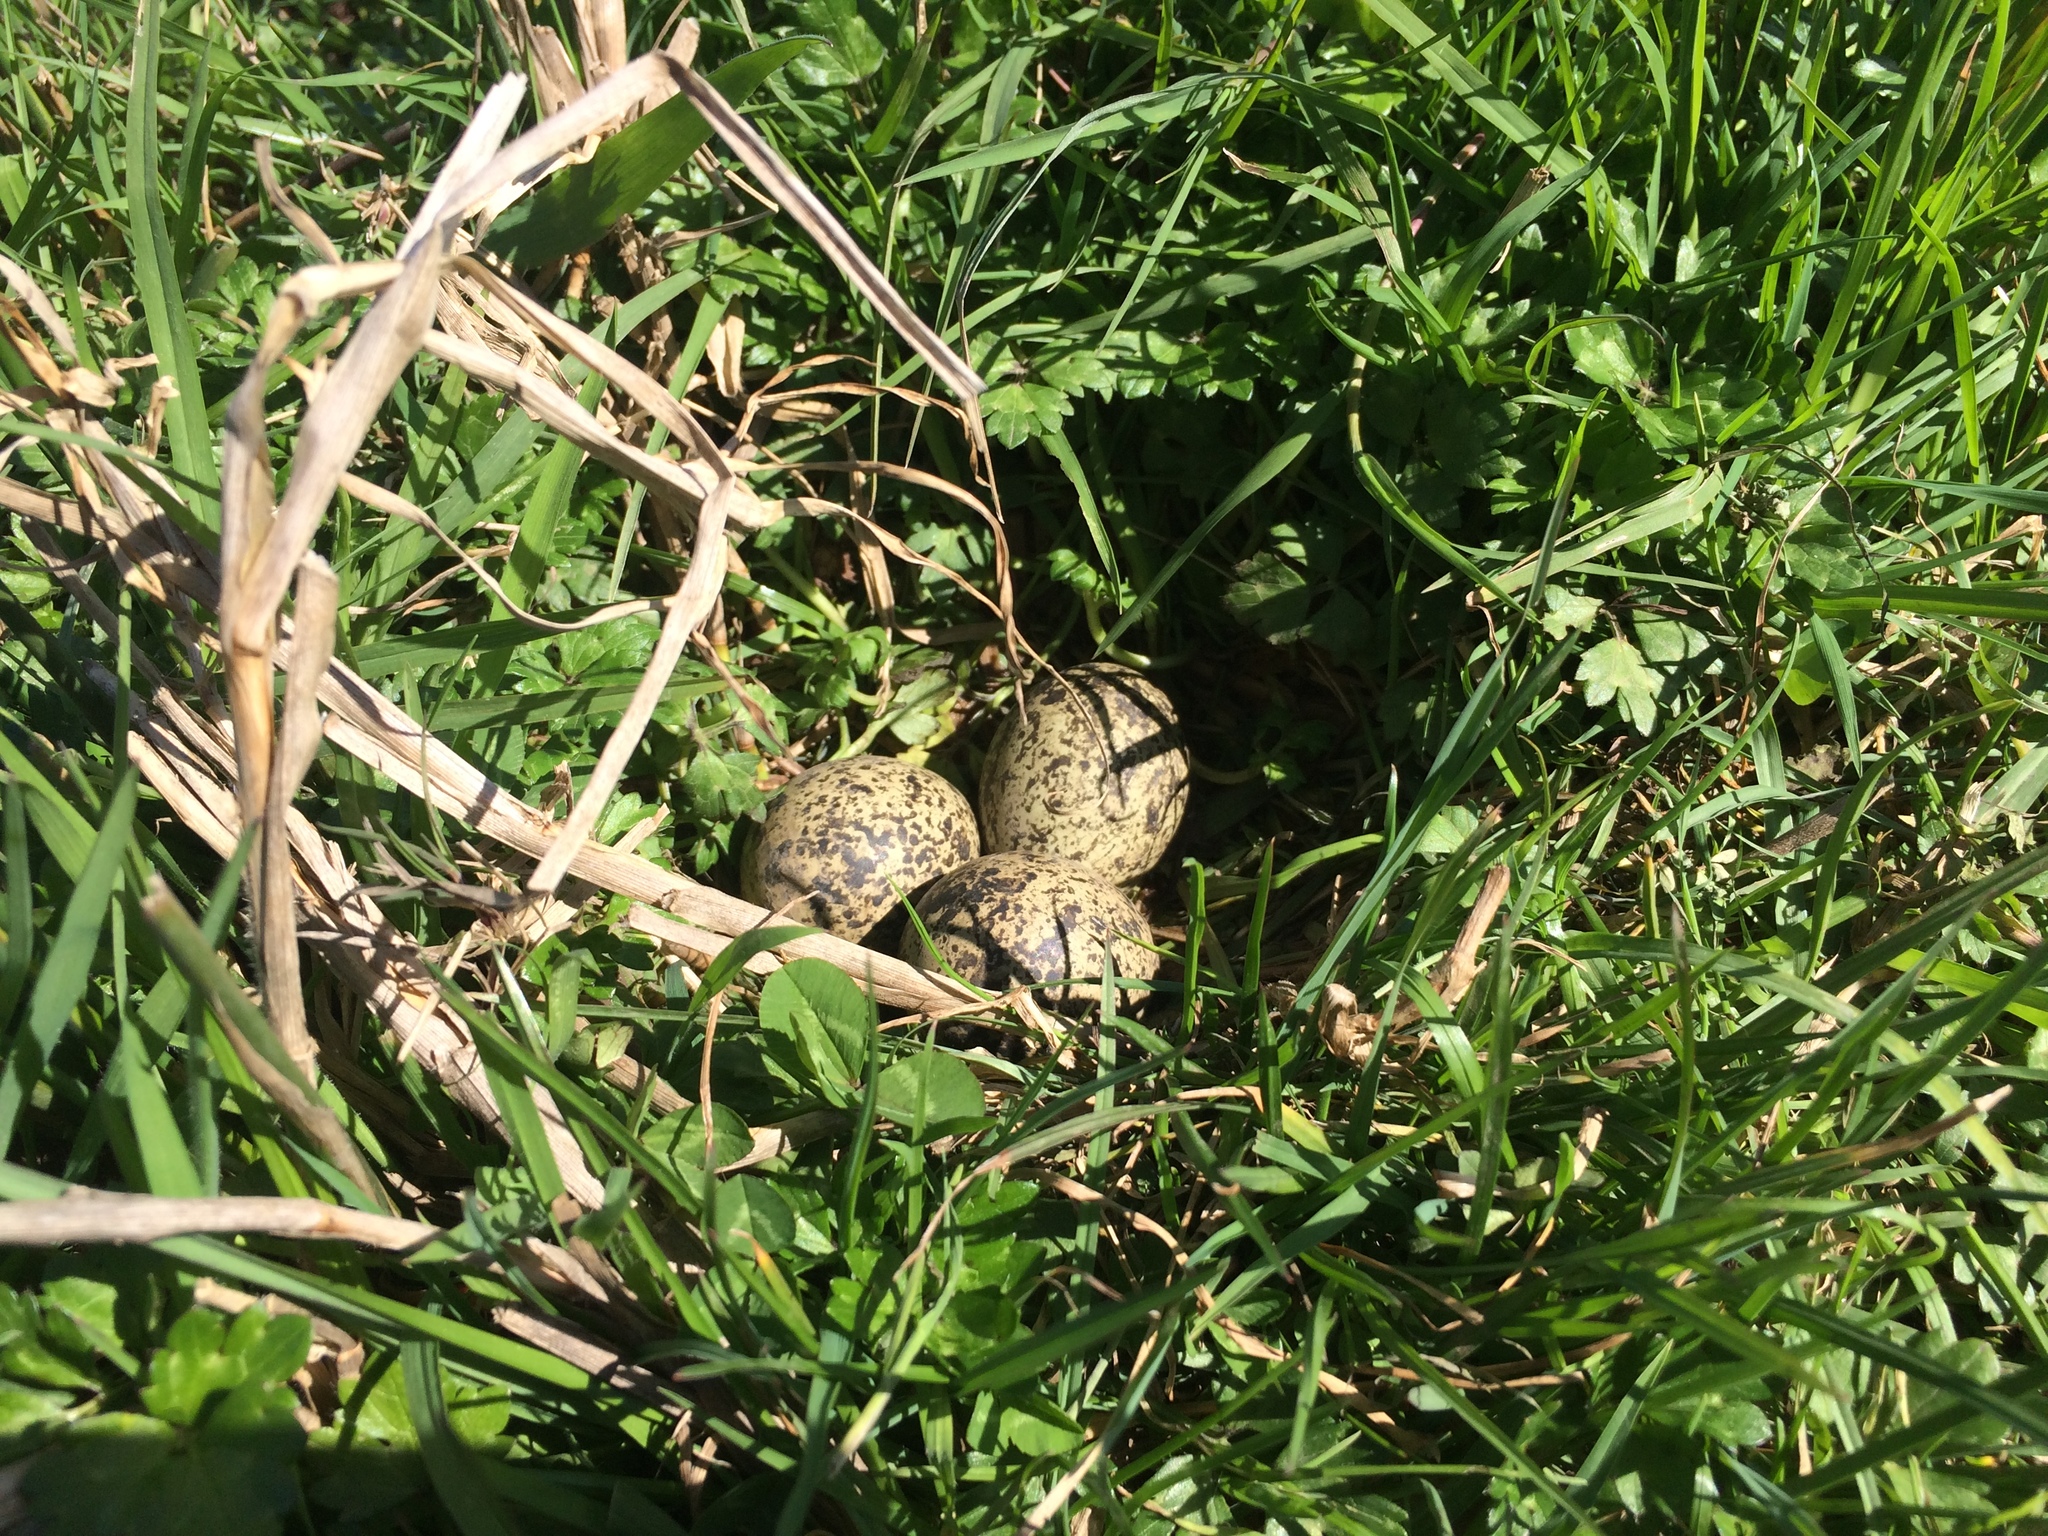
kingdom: Animalia
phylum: Chordata
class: Aves
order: Charadriiformes
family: Charadriidae
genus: Anarhynchus
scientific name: Anarhynchus
